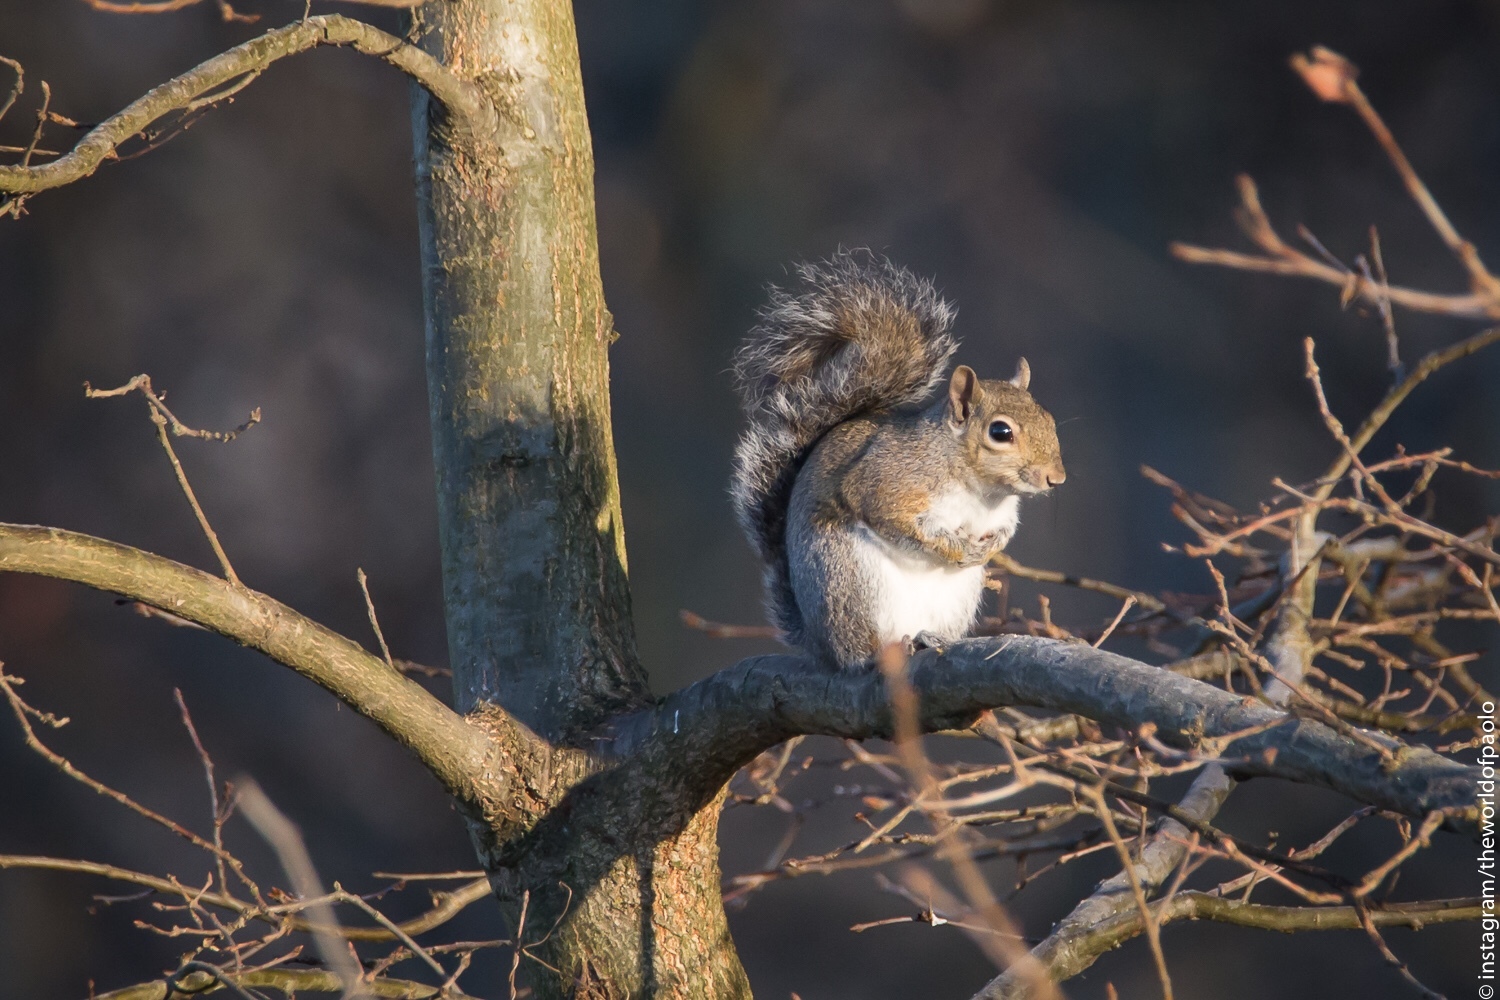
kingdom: Animalia
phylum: Chordata
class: Mammalia
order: Rodentia
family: Sciuridae
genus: Sciurus
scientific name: Sciurus carolinensis
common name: Eastern gray squirrel
